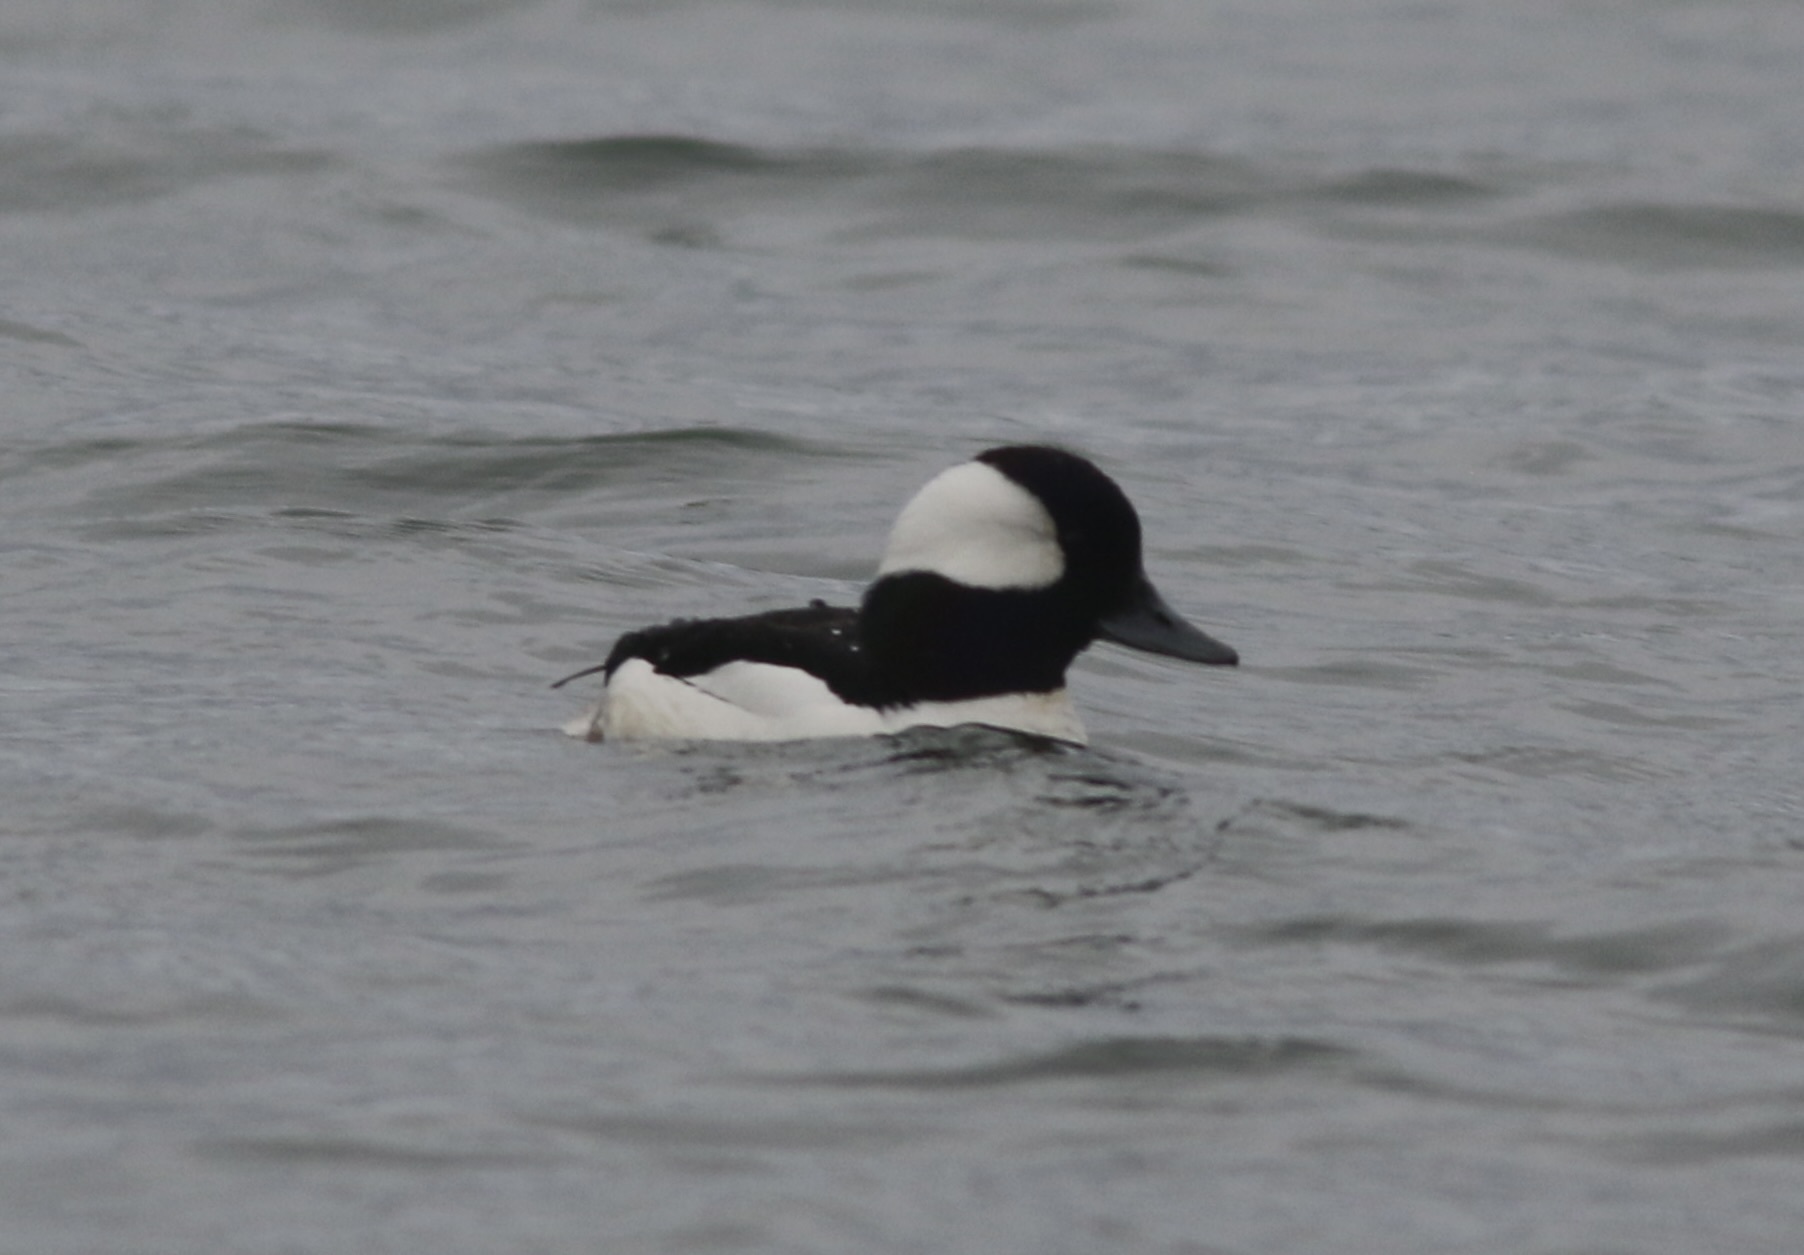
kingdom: Animalia
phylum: Chordata
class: Aves
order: Anseriformes
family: Anatidae
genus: Bucephala
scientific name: Bucephala albeola
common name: Bufflehead
